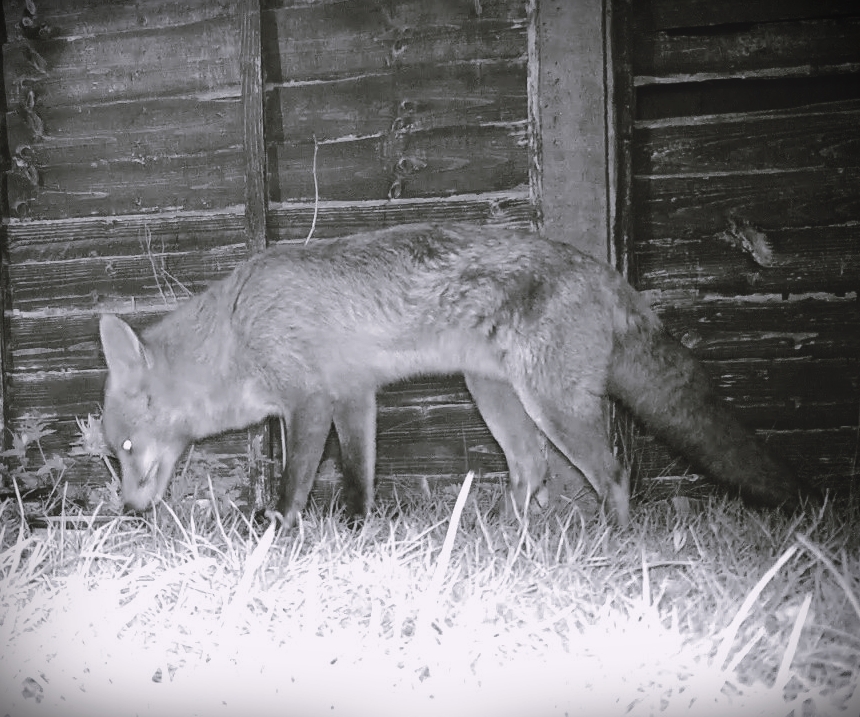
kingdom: Animalia
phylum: Chordata
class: Mammalia
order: Carnivora
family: Canidae
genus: Vulpes
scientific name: Vulpes vulpes
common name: Red fox
